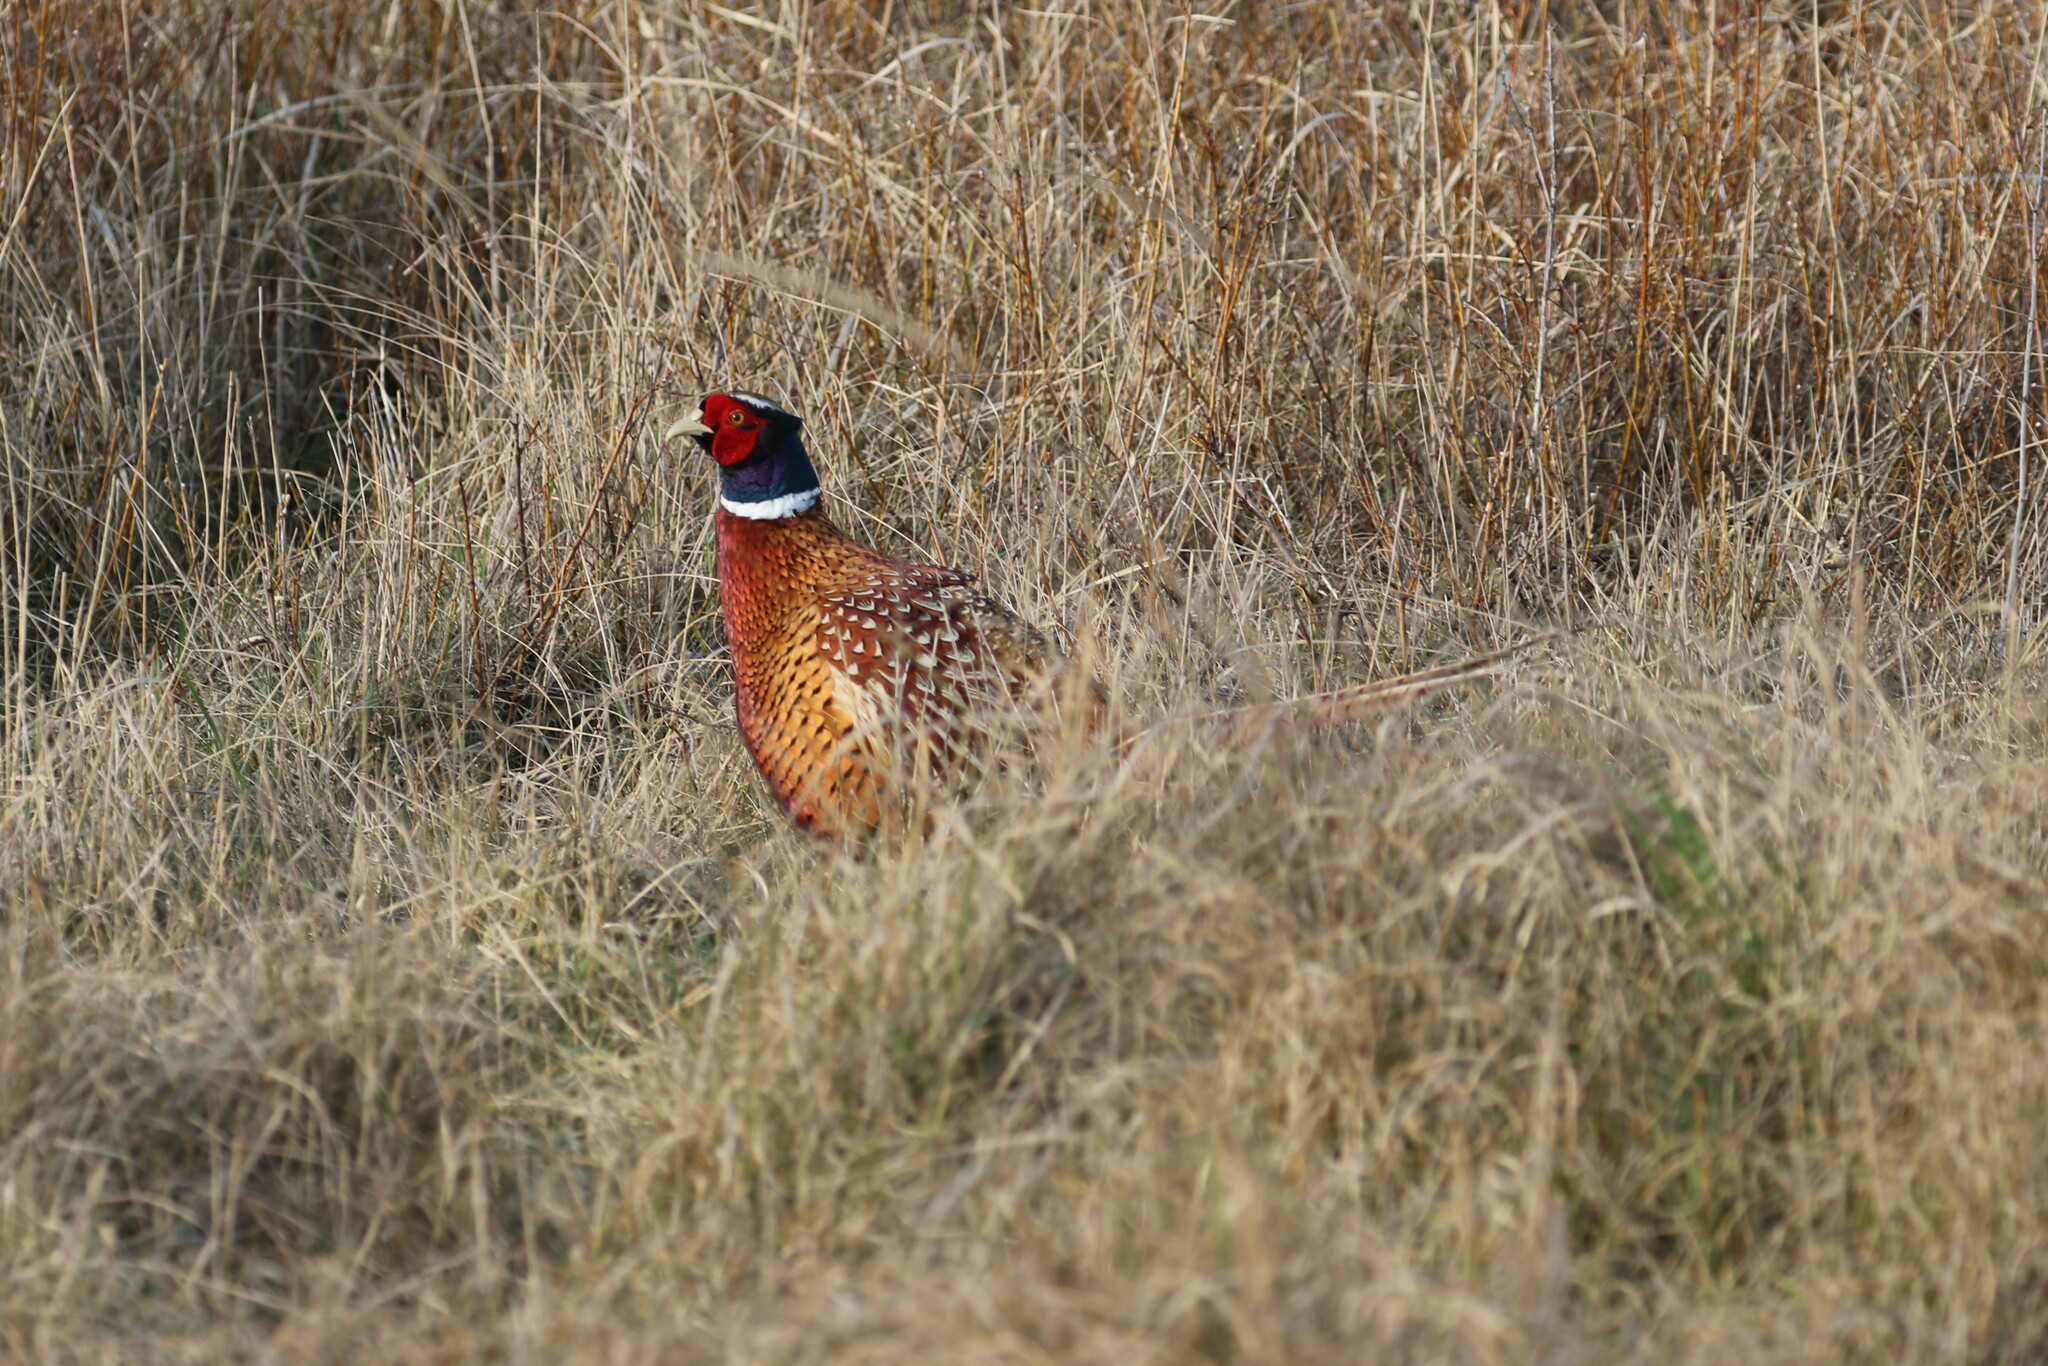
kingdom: Animalia
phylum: Chordata
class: Aves
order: Galliformes
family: Phasianidae
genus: Phasianus
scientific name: Phasianus colchicus
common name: Common pheasant
